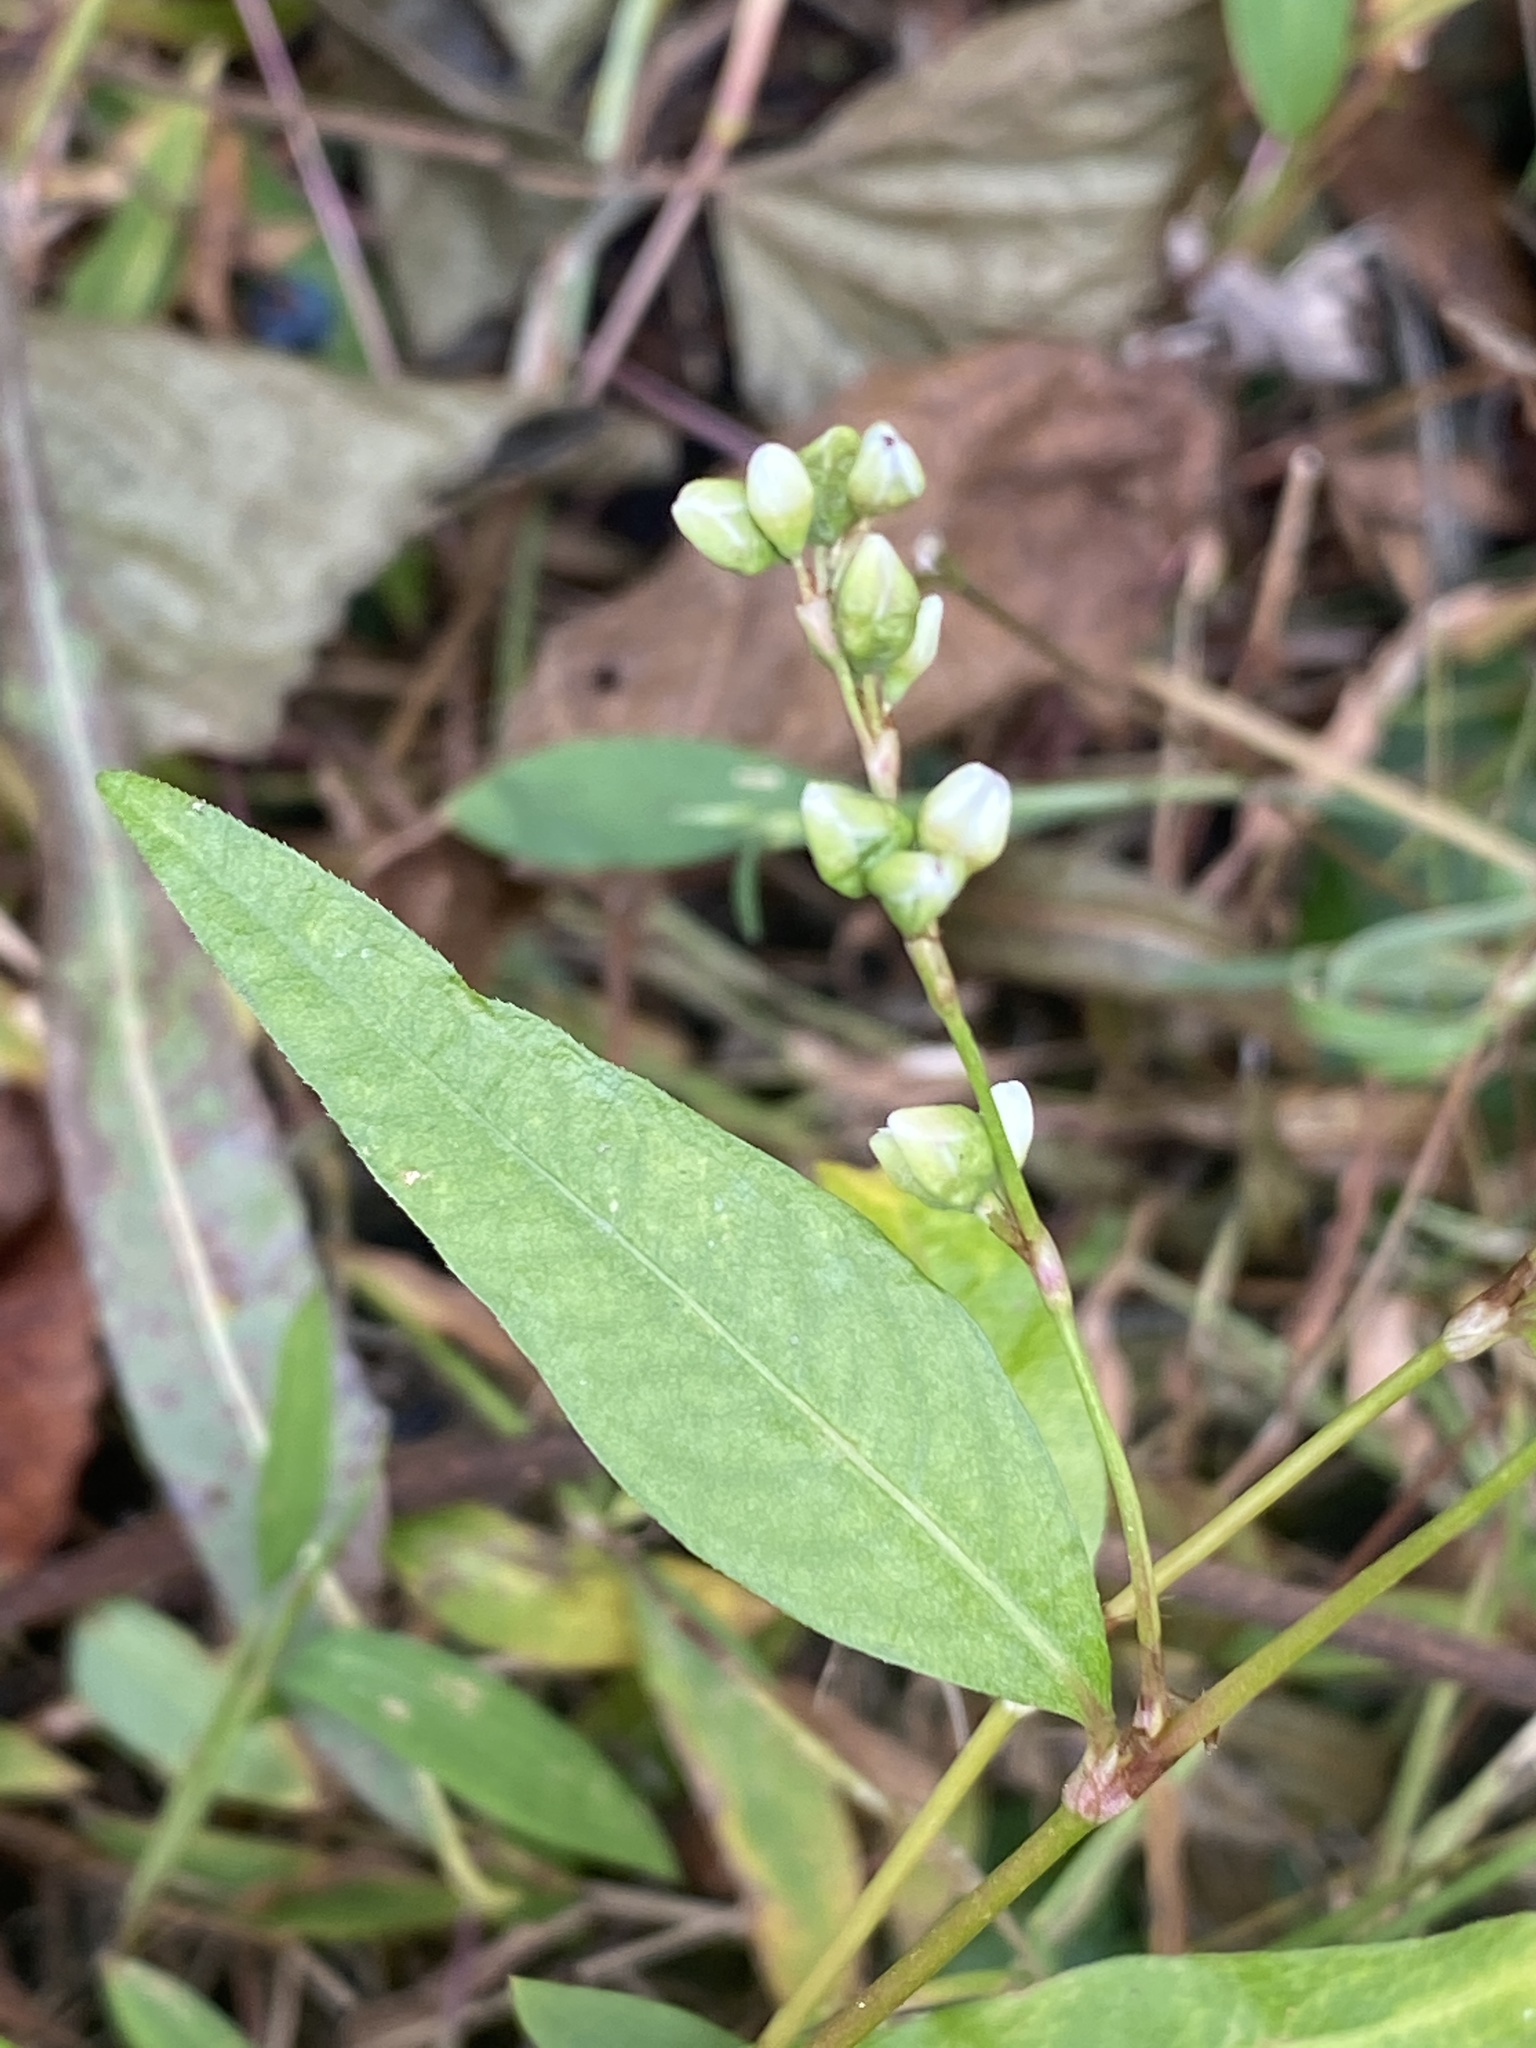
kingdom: Plantae
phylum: Tracheophyta
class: Magnoliopsida
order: Caryophyllales
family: Polygonaceae
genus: Persicaria
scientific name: Persicaria punctata
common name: Dotted smartweed
